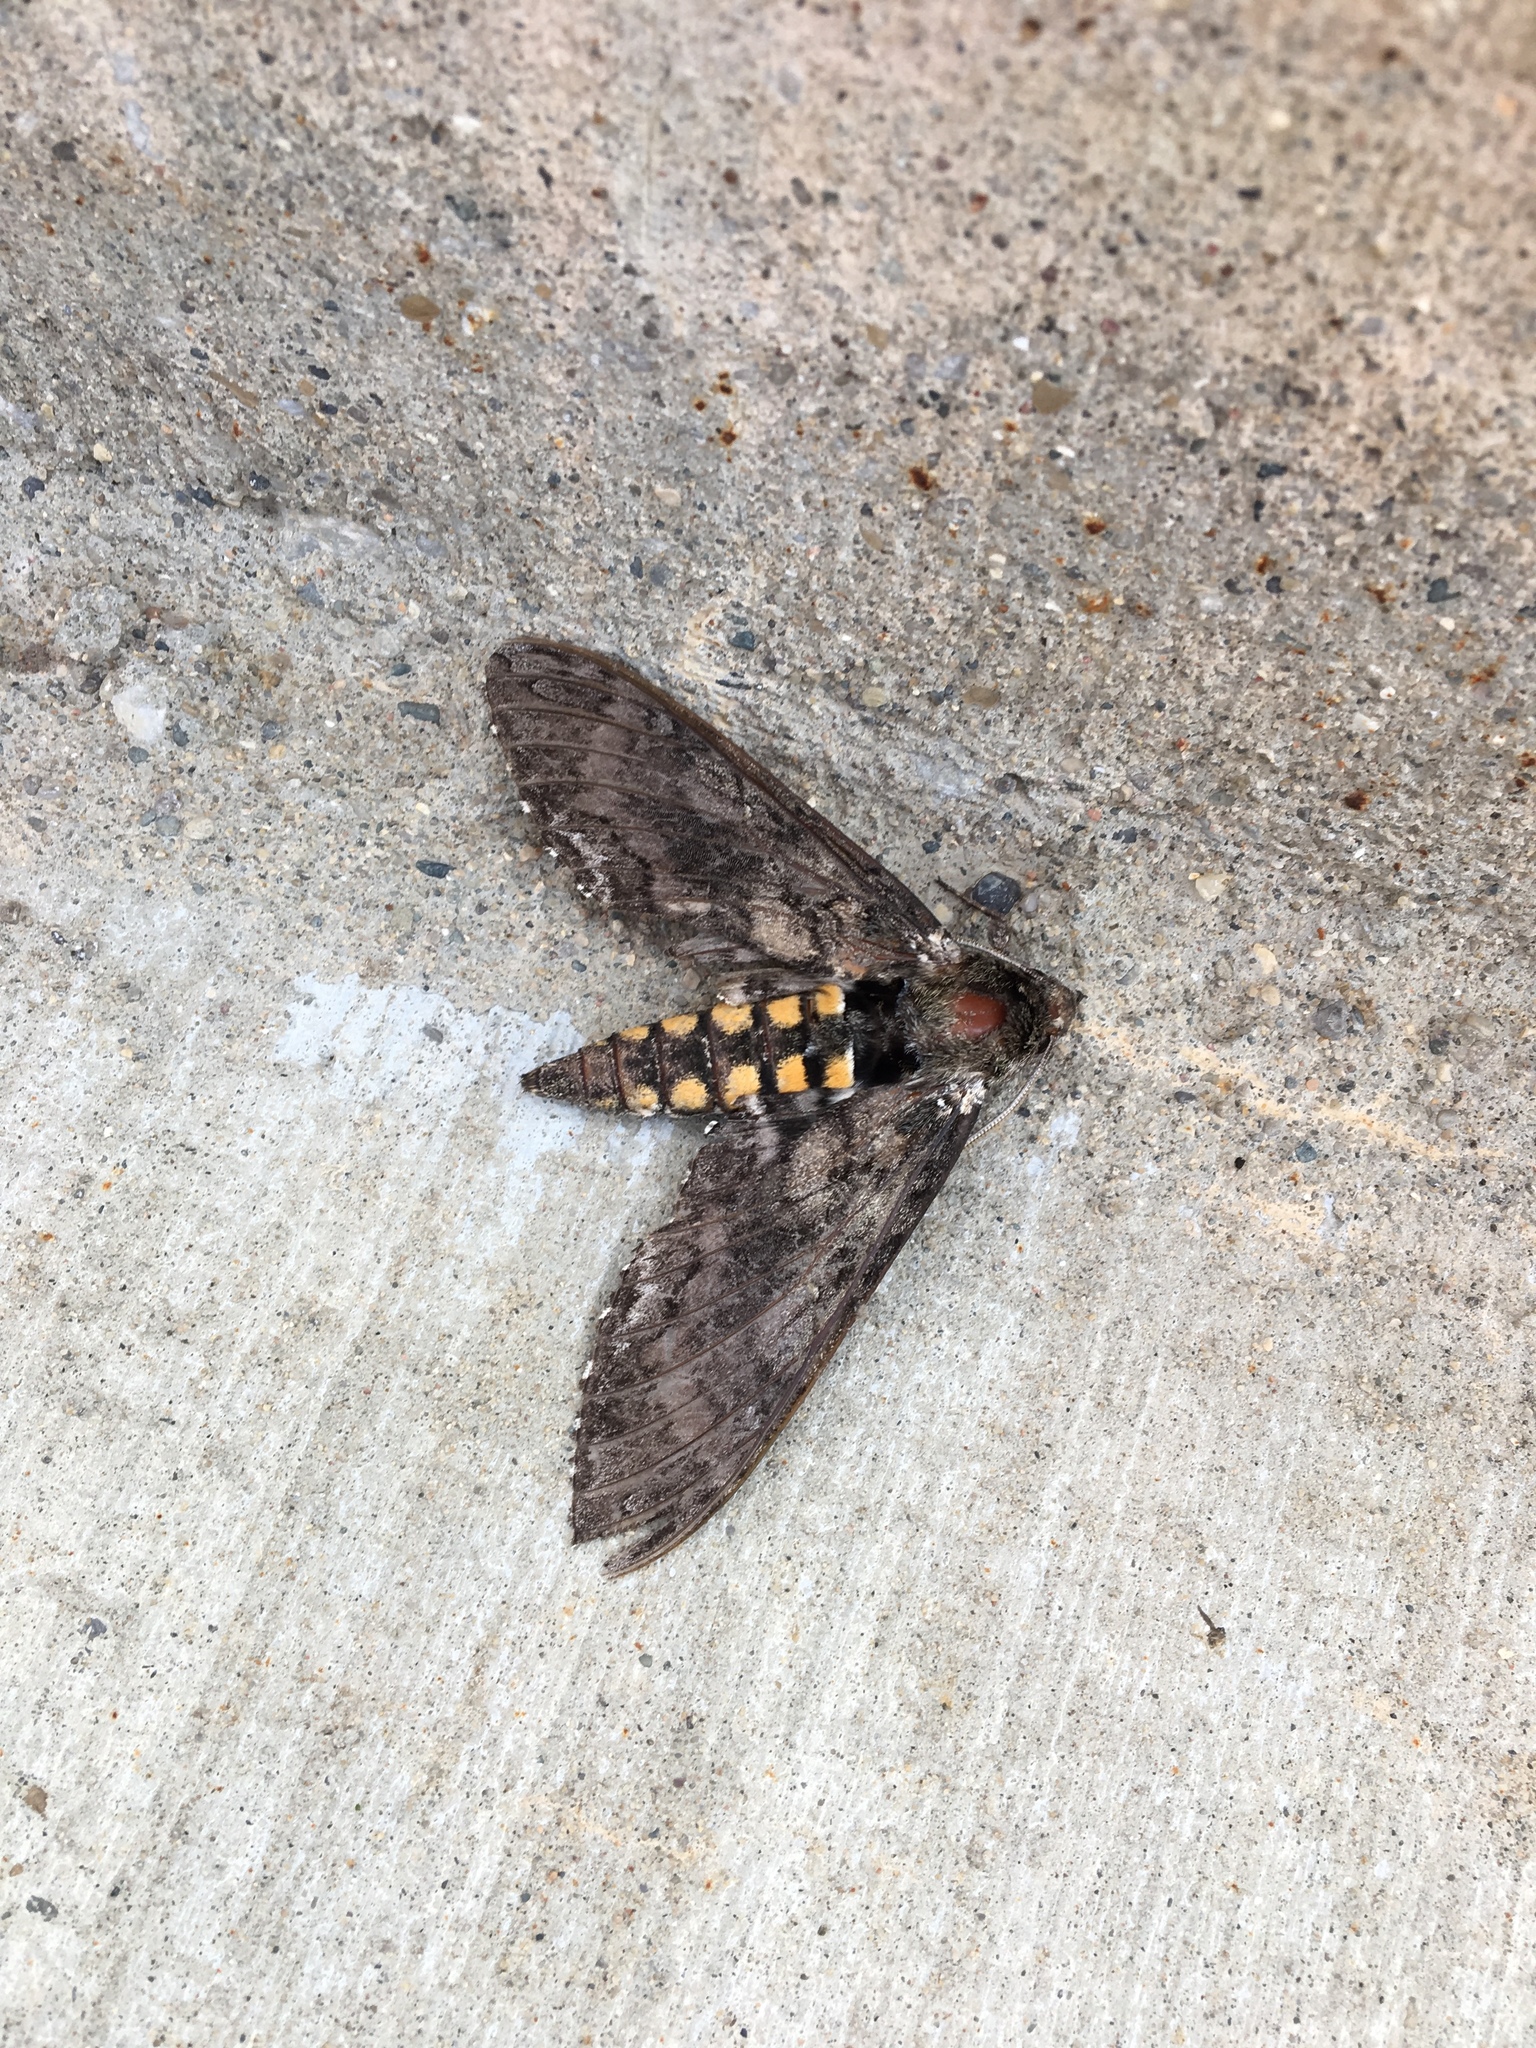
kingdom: Animalia
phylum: Arthropoda
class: Insecta
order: Lepidoptera
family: Sphingidae
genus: Manduca
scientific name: Manduca sexta
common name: Carolina sphinx
